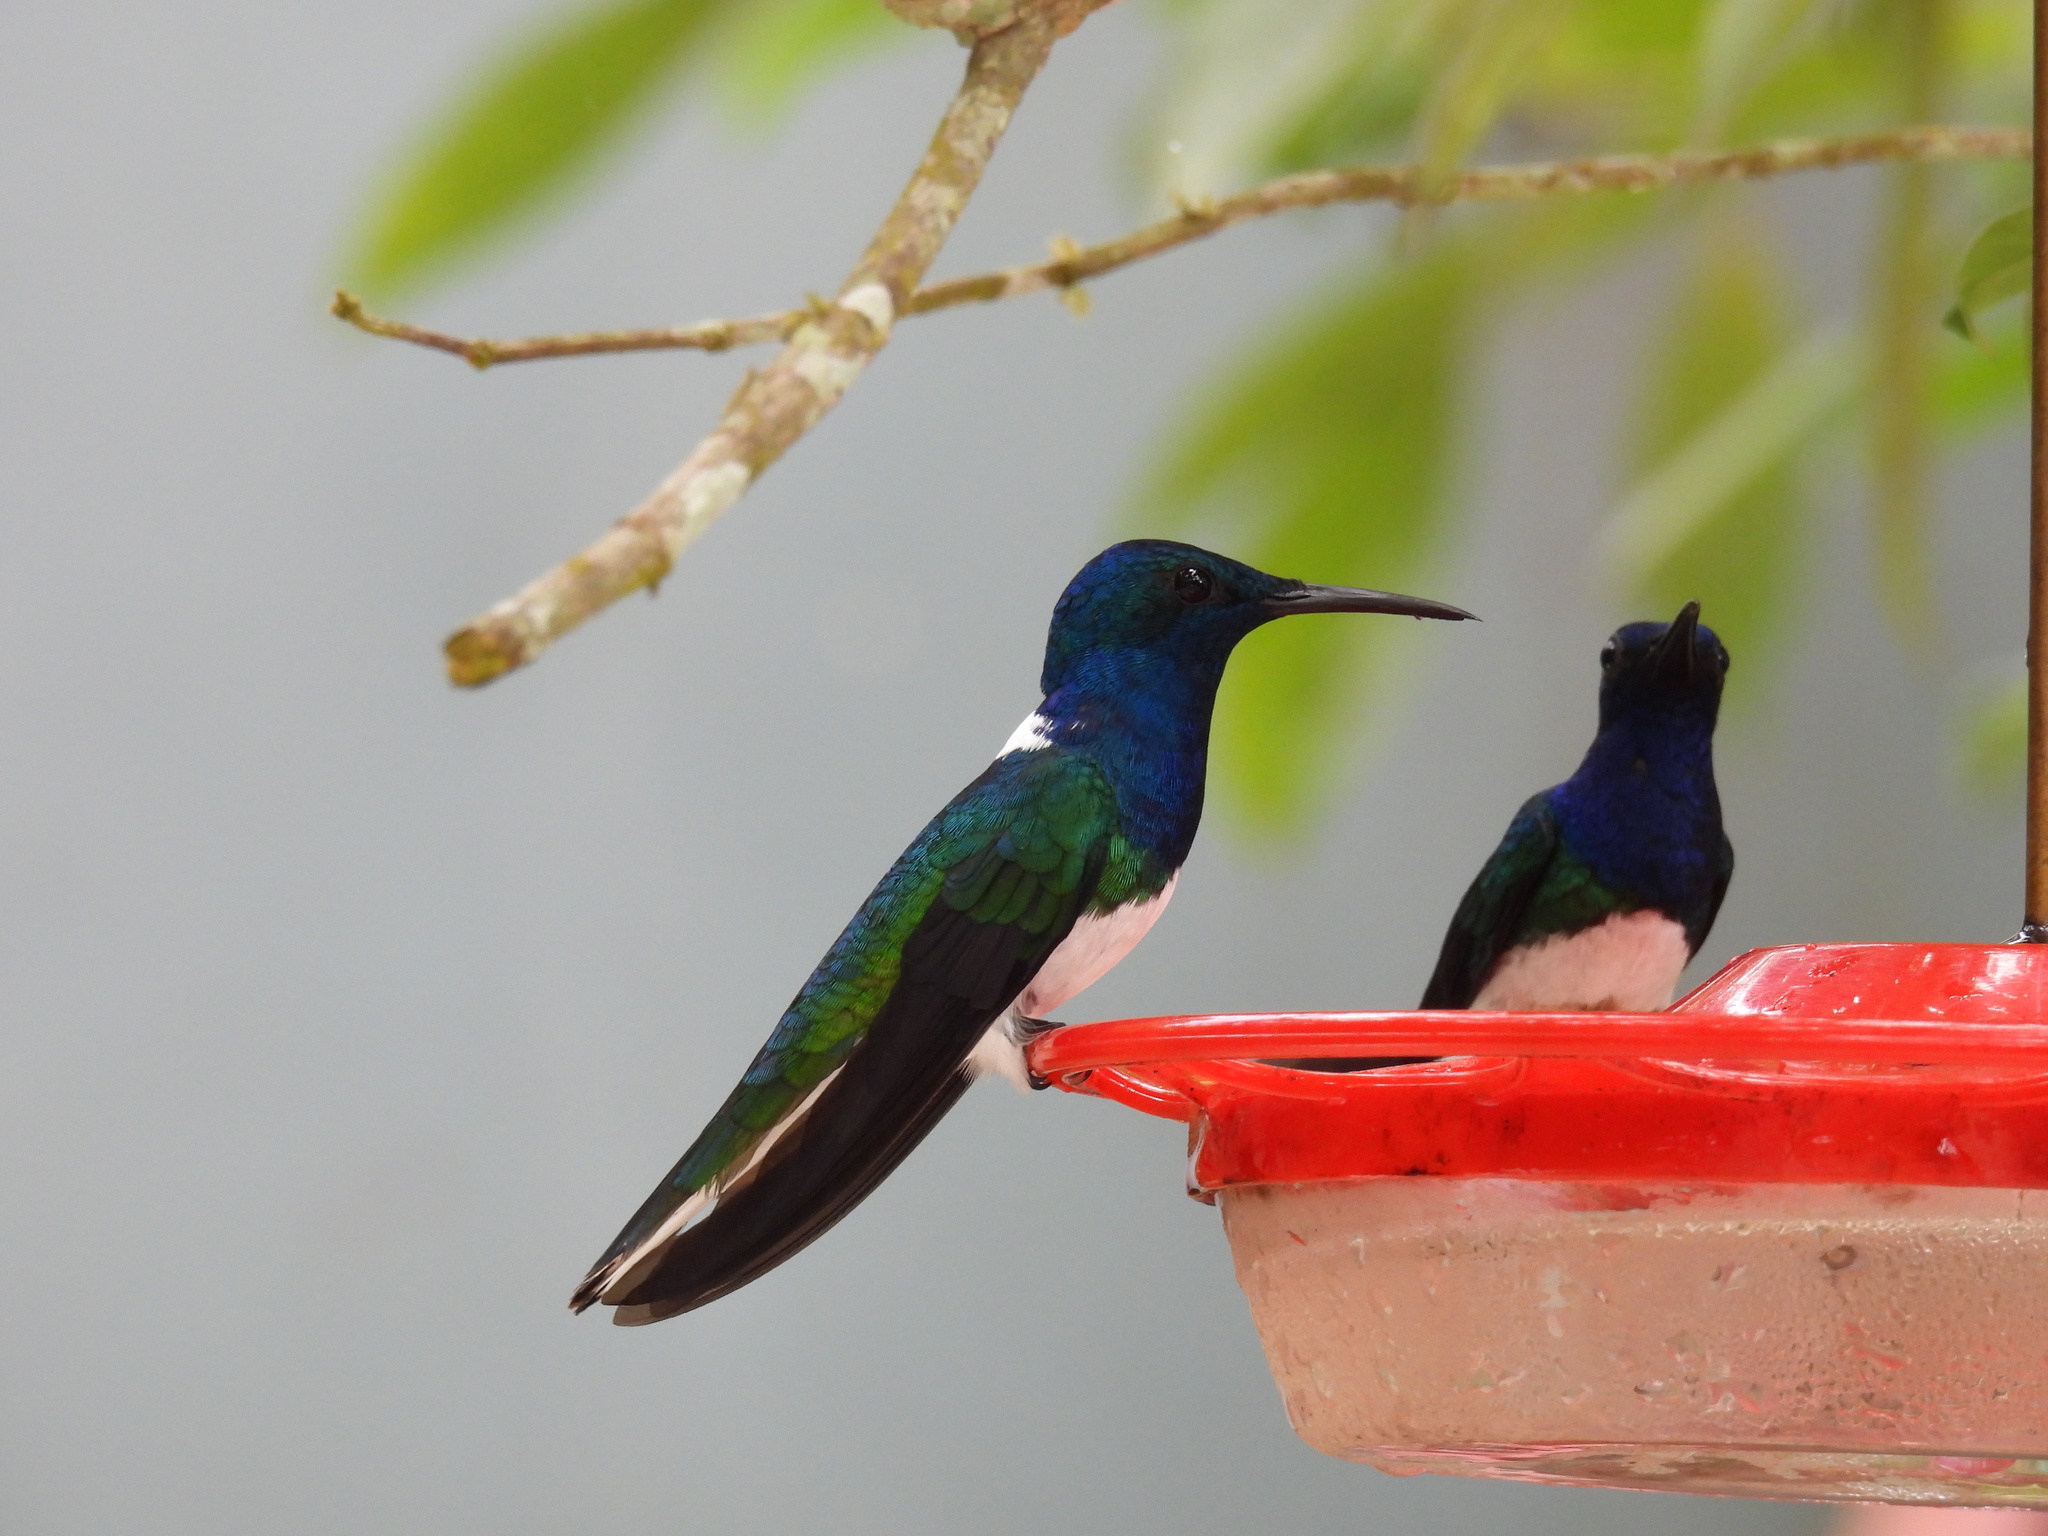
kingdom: Animalia
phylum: Chordata
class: Aves
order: Apodiformes
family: Trochilidae
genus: Florisuga
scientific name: Florisuga mellivora
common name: White-necked jacobin
